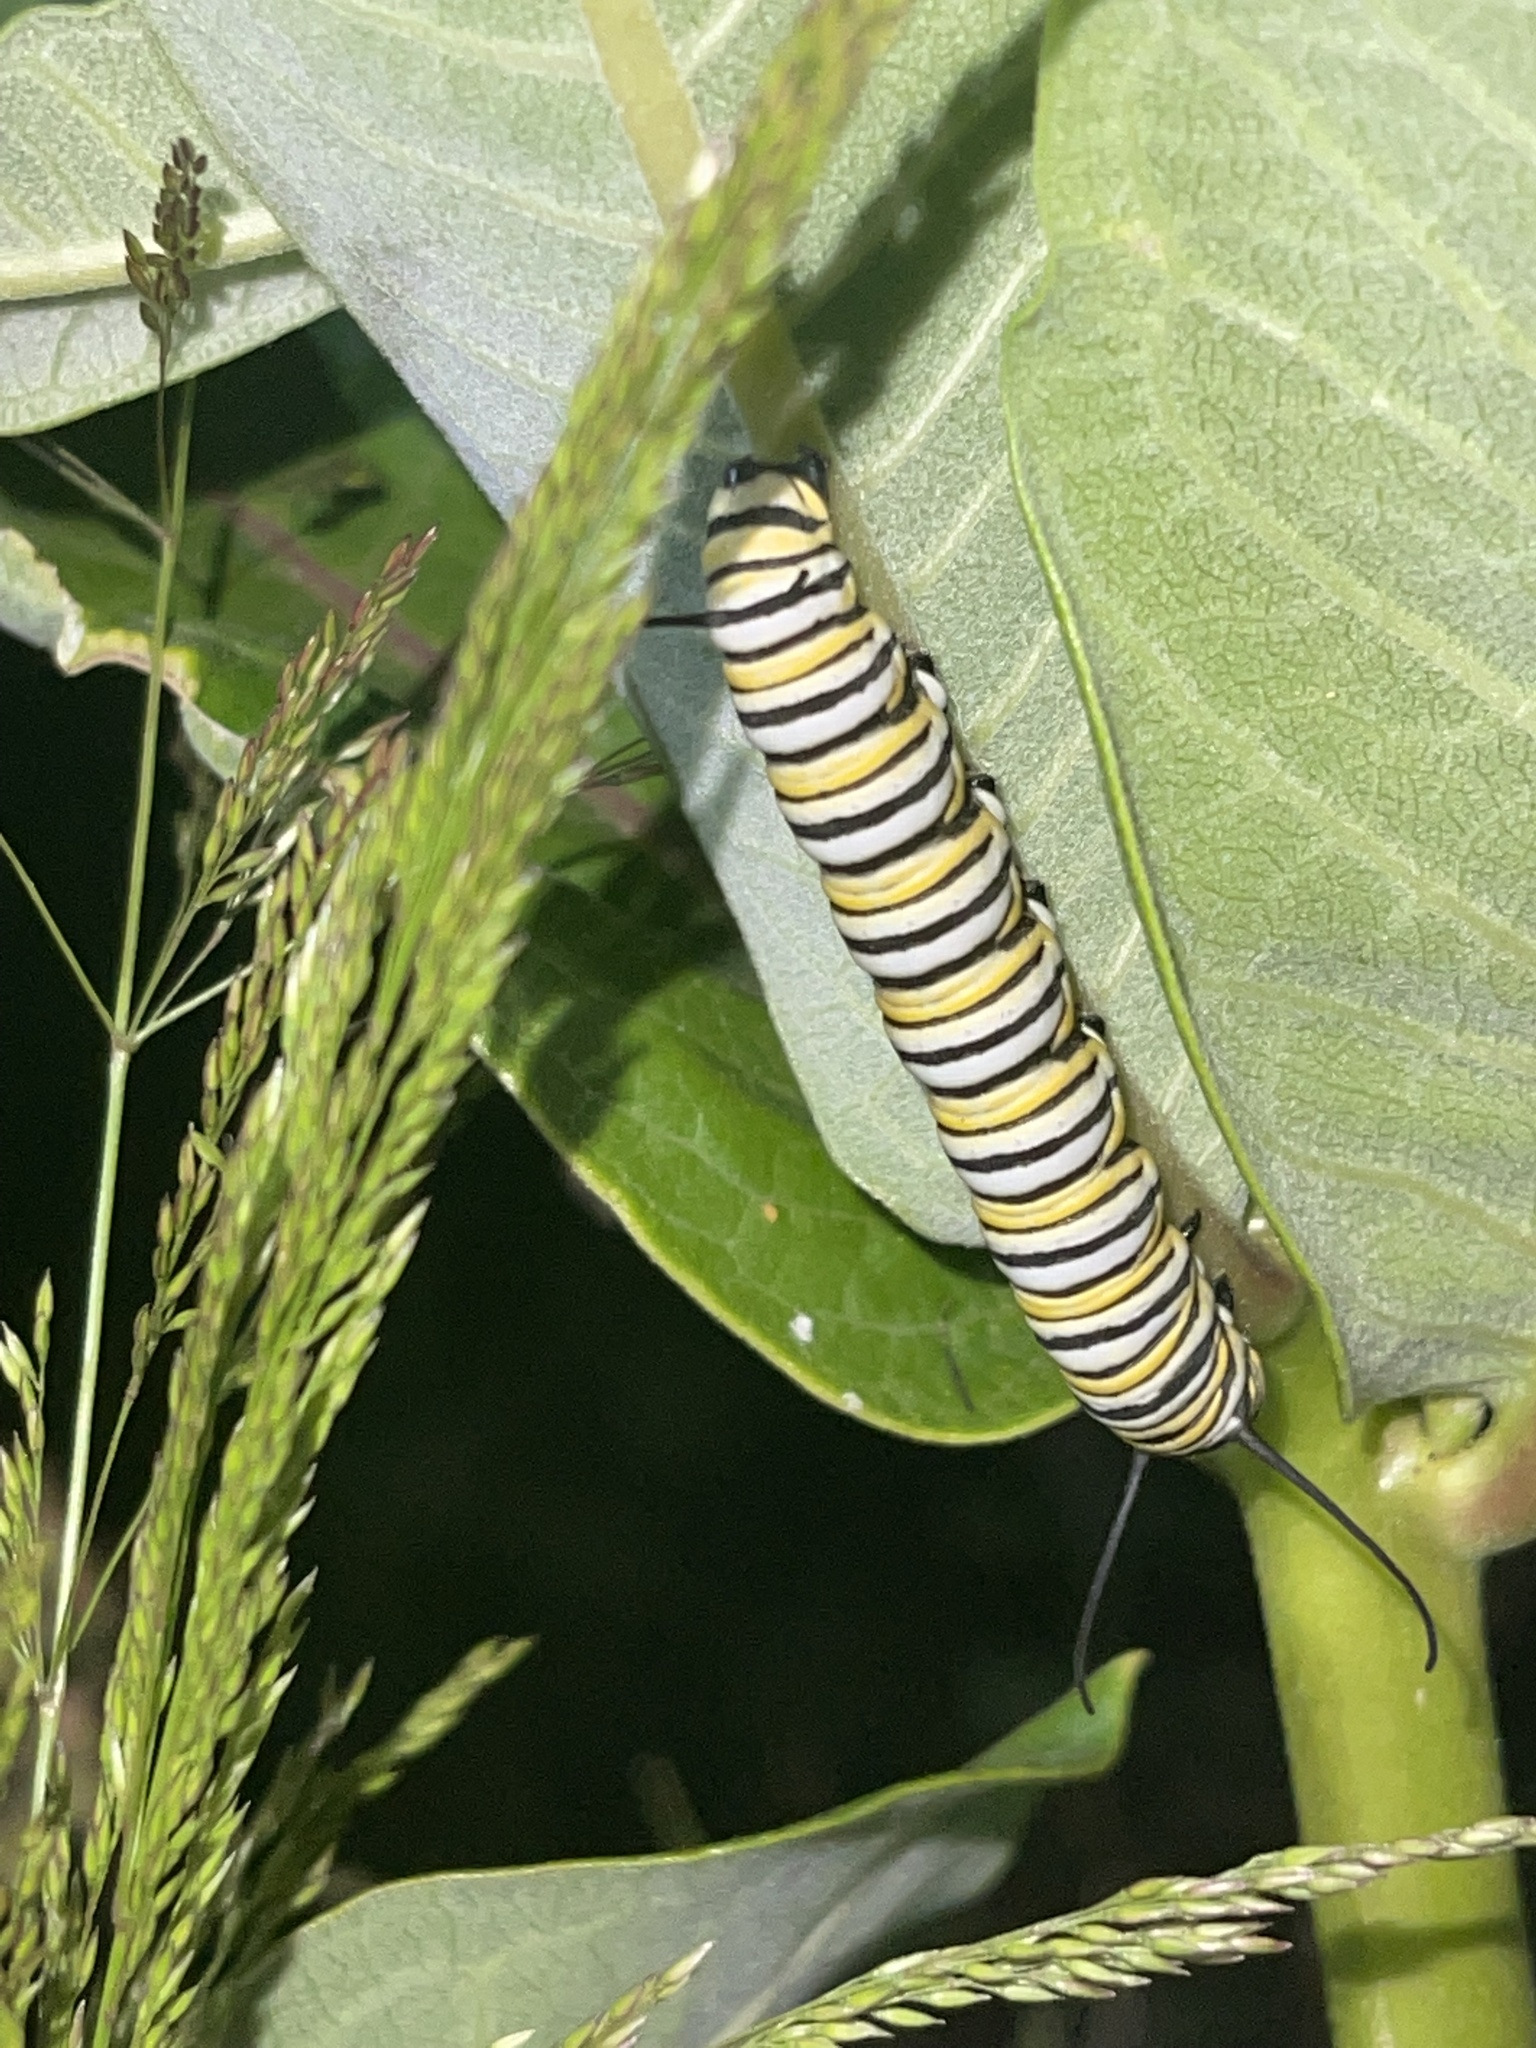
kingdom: Animalia
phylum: Arthropoda
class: Insecta
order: Lepidoptera
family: Nymphalidae
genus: Danaus
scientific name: Danaus plexippus
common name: Monarch
